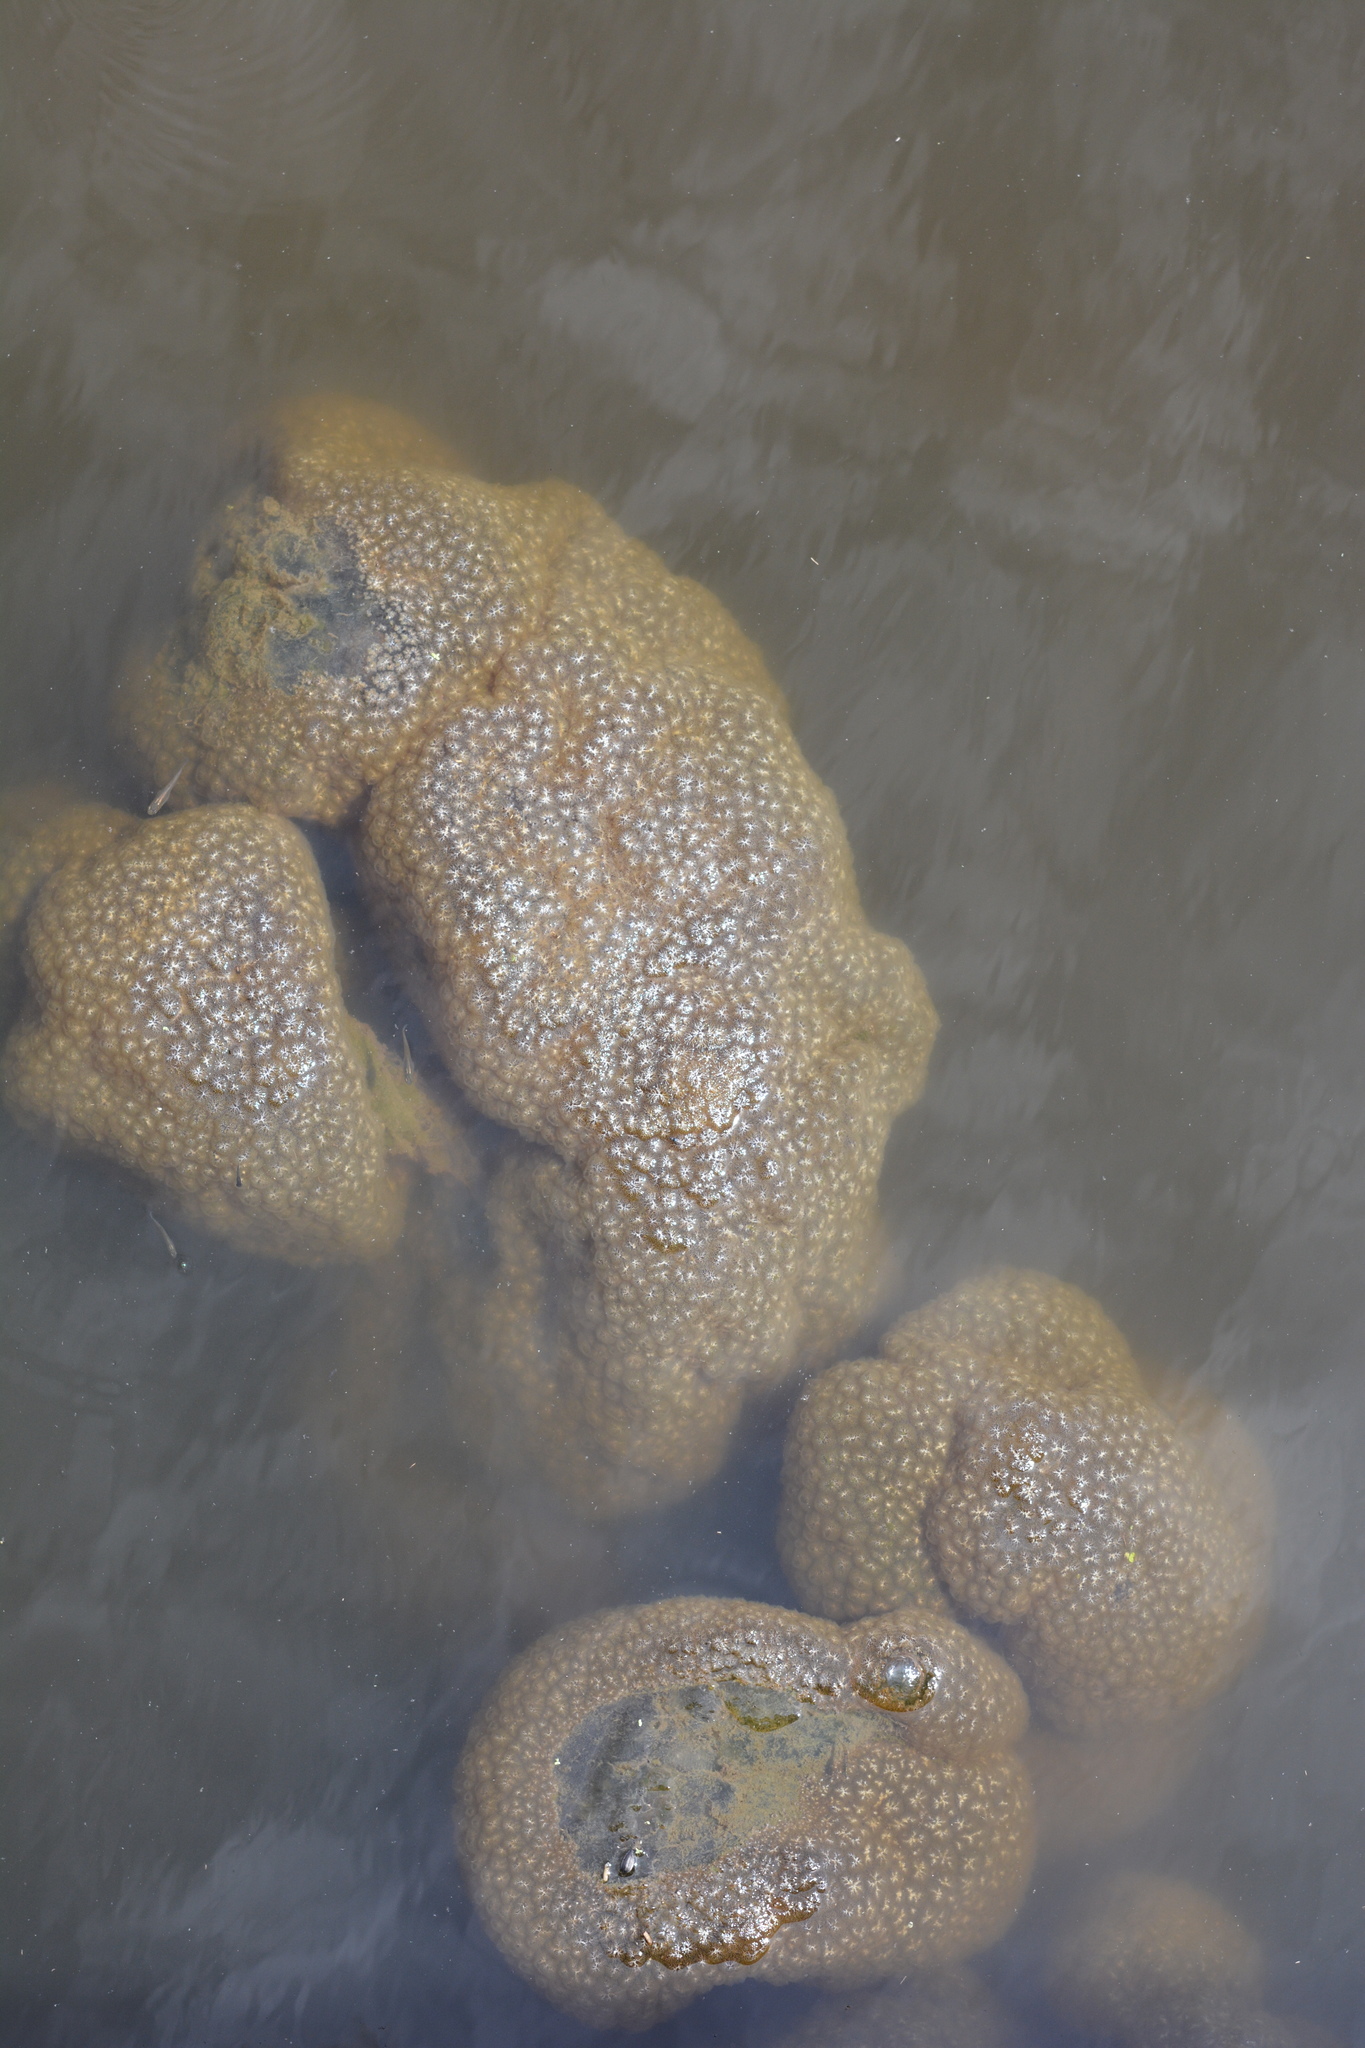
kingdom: Animalia
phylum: Bryozoa
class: Phylactolaemata
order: Plumatellida
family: Pectinatellidae
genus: Pectinatella
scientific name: Pectinatella magnifica
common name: Magnificent bryozoan
